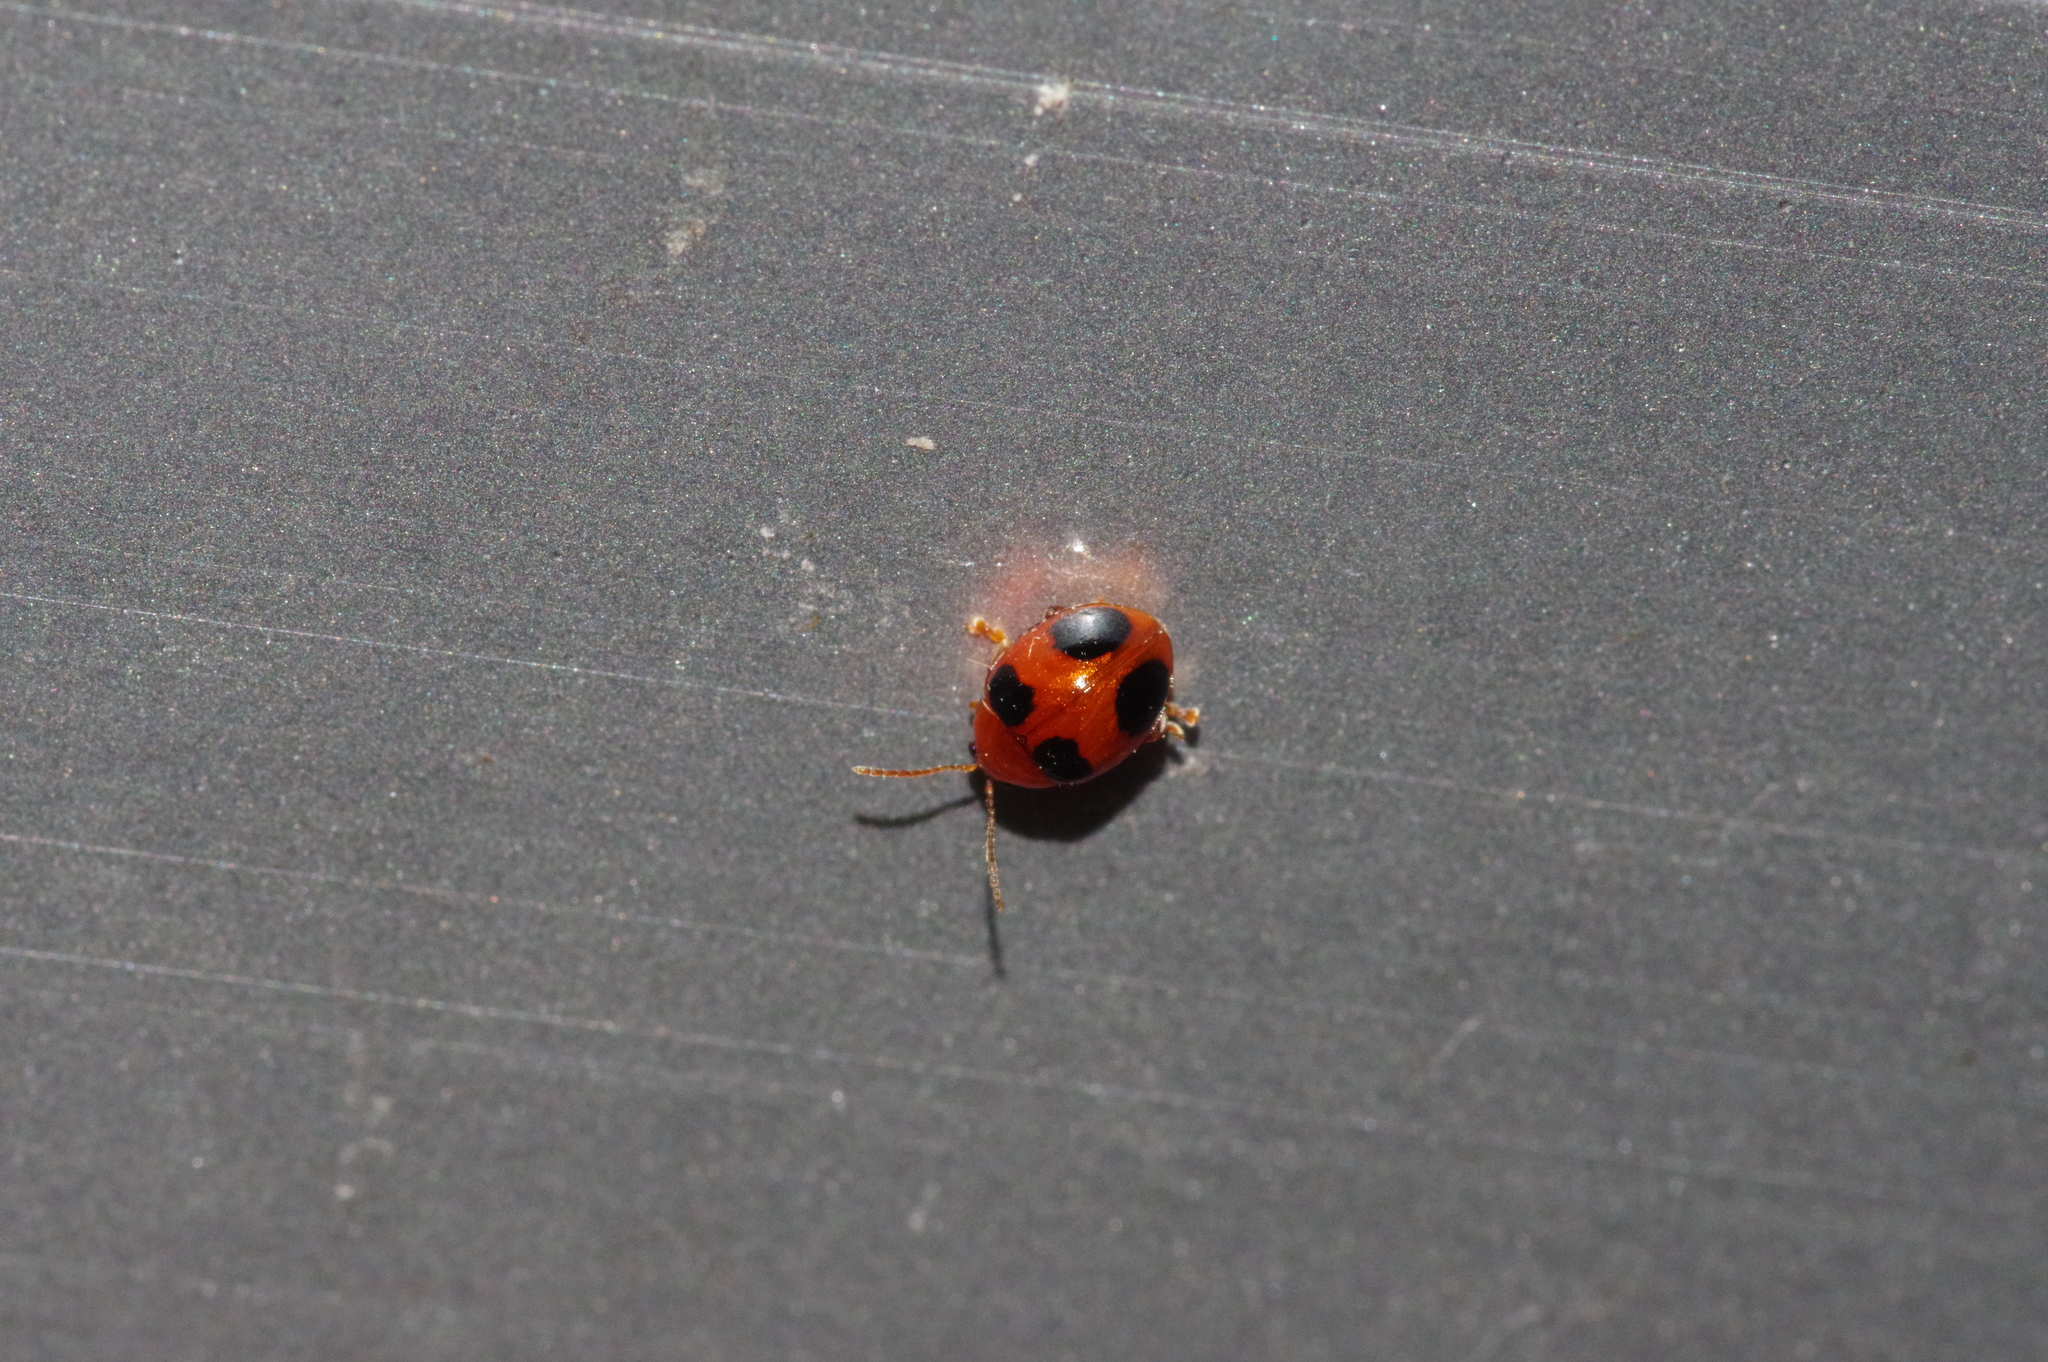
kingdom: Animalia
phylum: Arthropoda
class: Insecta
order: Coleoptera
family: Chrysomelidae
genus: Sphaeroderma
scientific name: Sphaeroderma
